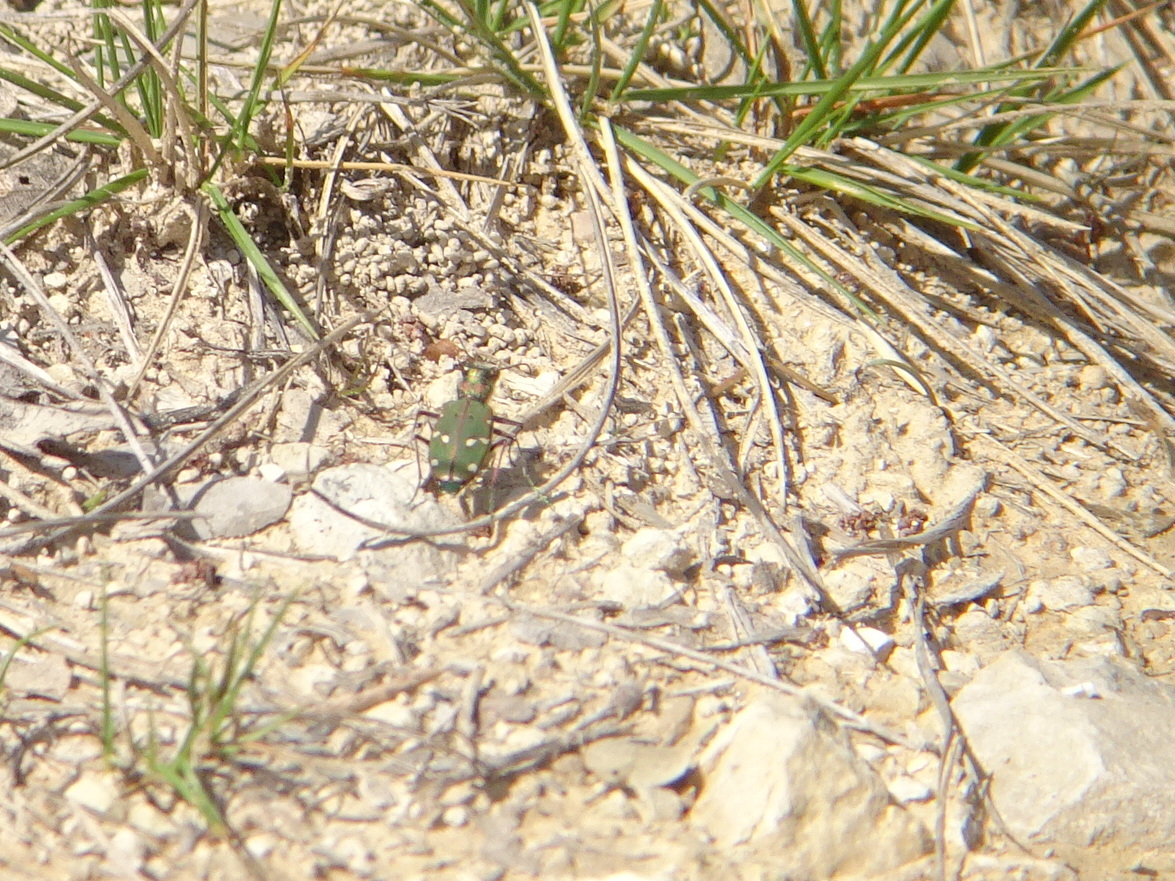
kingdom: Animalia
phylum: Arthropoda
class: Insecta
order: Coleoptera
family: Carabidae
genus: Cicindela
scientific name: Cicindela campestris
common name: Common tiger beetle
